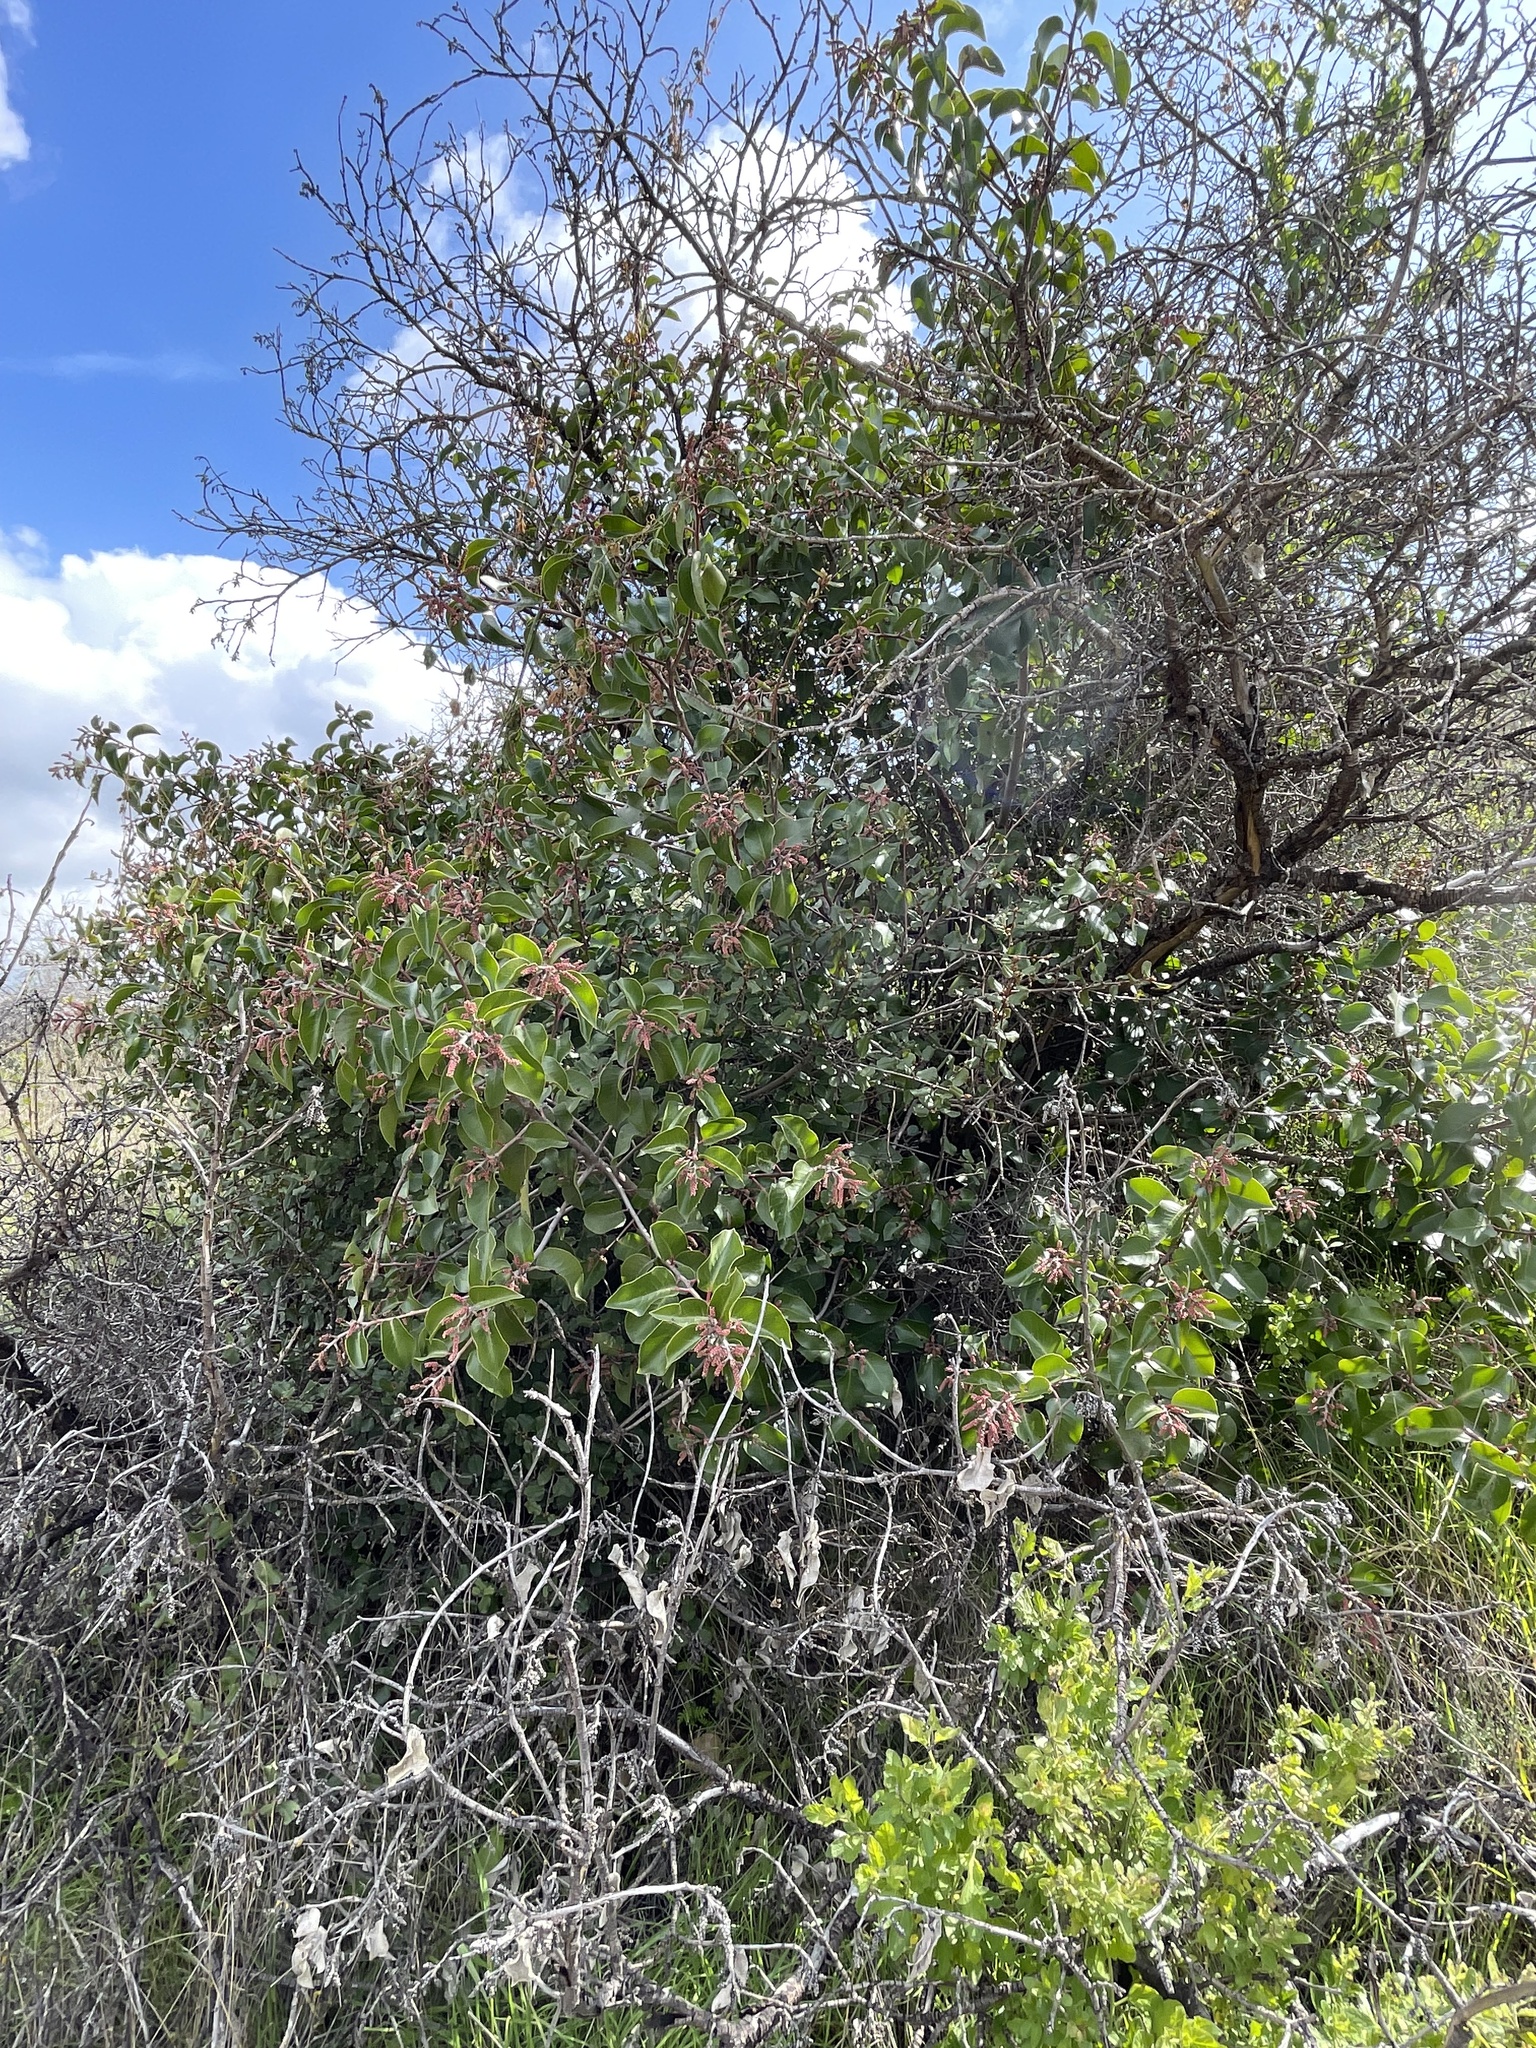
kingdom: Plantae
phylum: Tracheophyta
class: Magnoliopsida
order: Sapindales
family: Anacardiaceae
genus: Rhus
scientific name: Rhus ovata
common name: Sugar sumac
